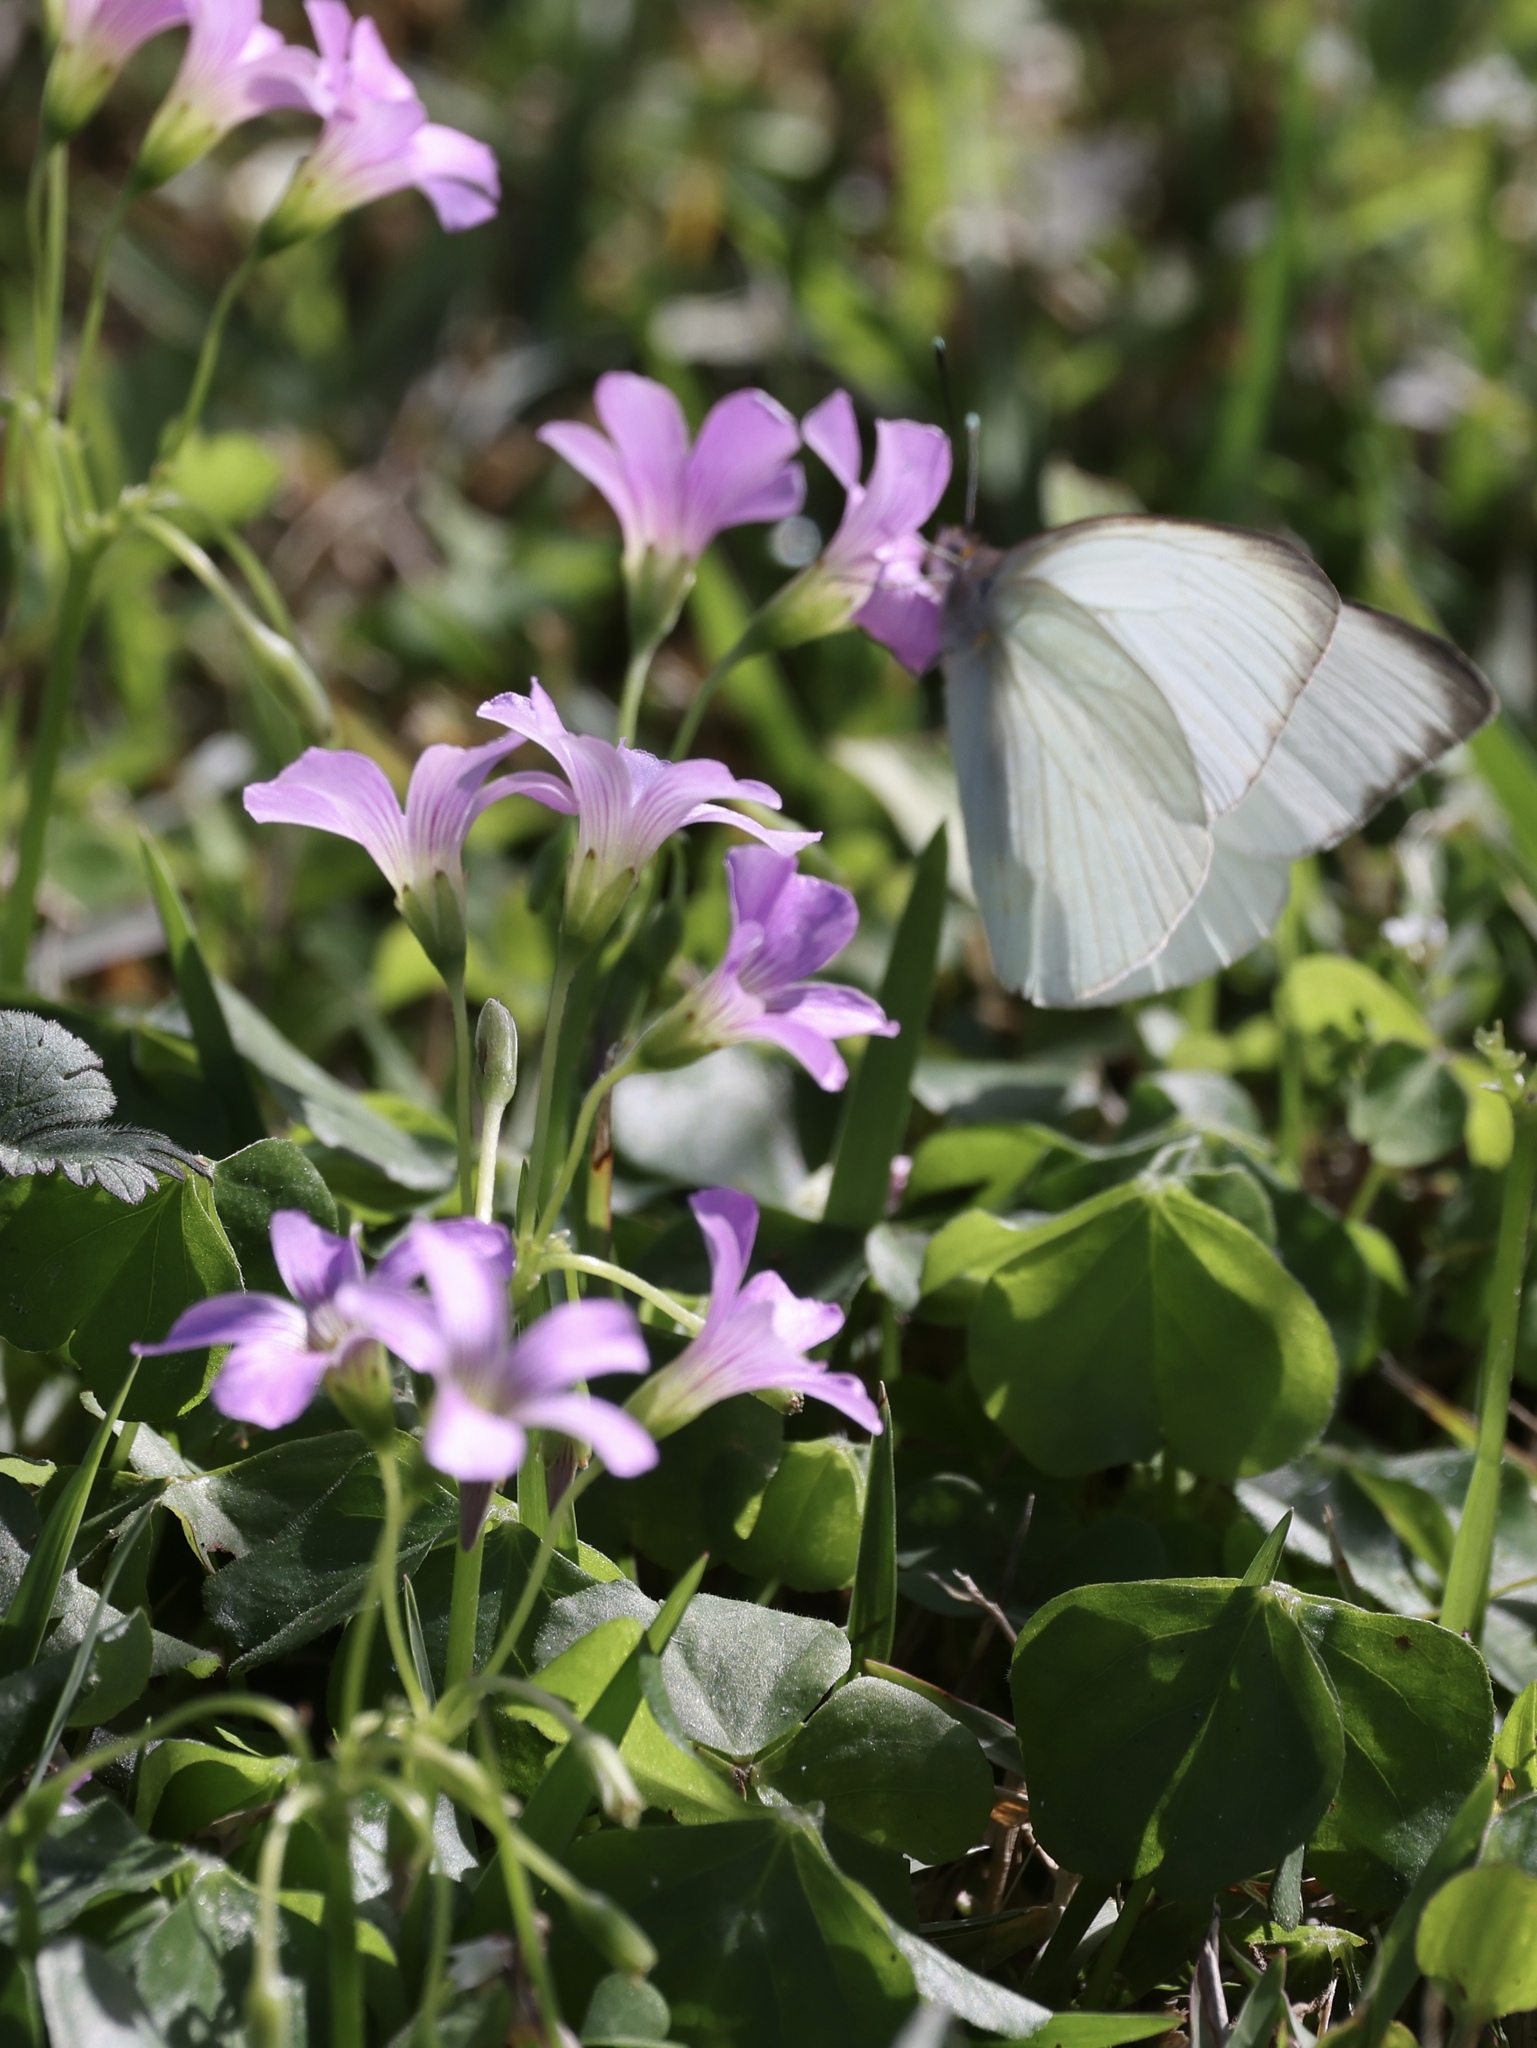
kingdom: Plantae
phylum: Tracheophyta
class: Magnoliopsida
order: Oxalidales
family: Oxalidaceae
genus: Oxalis
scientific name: Oxalis debilis
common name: Large-flowered pink-sorrel
